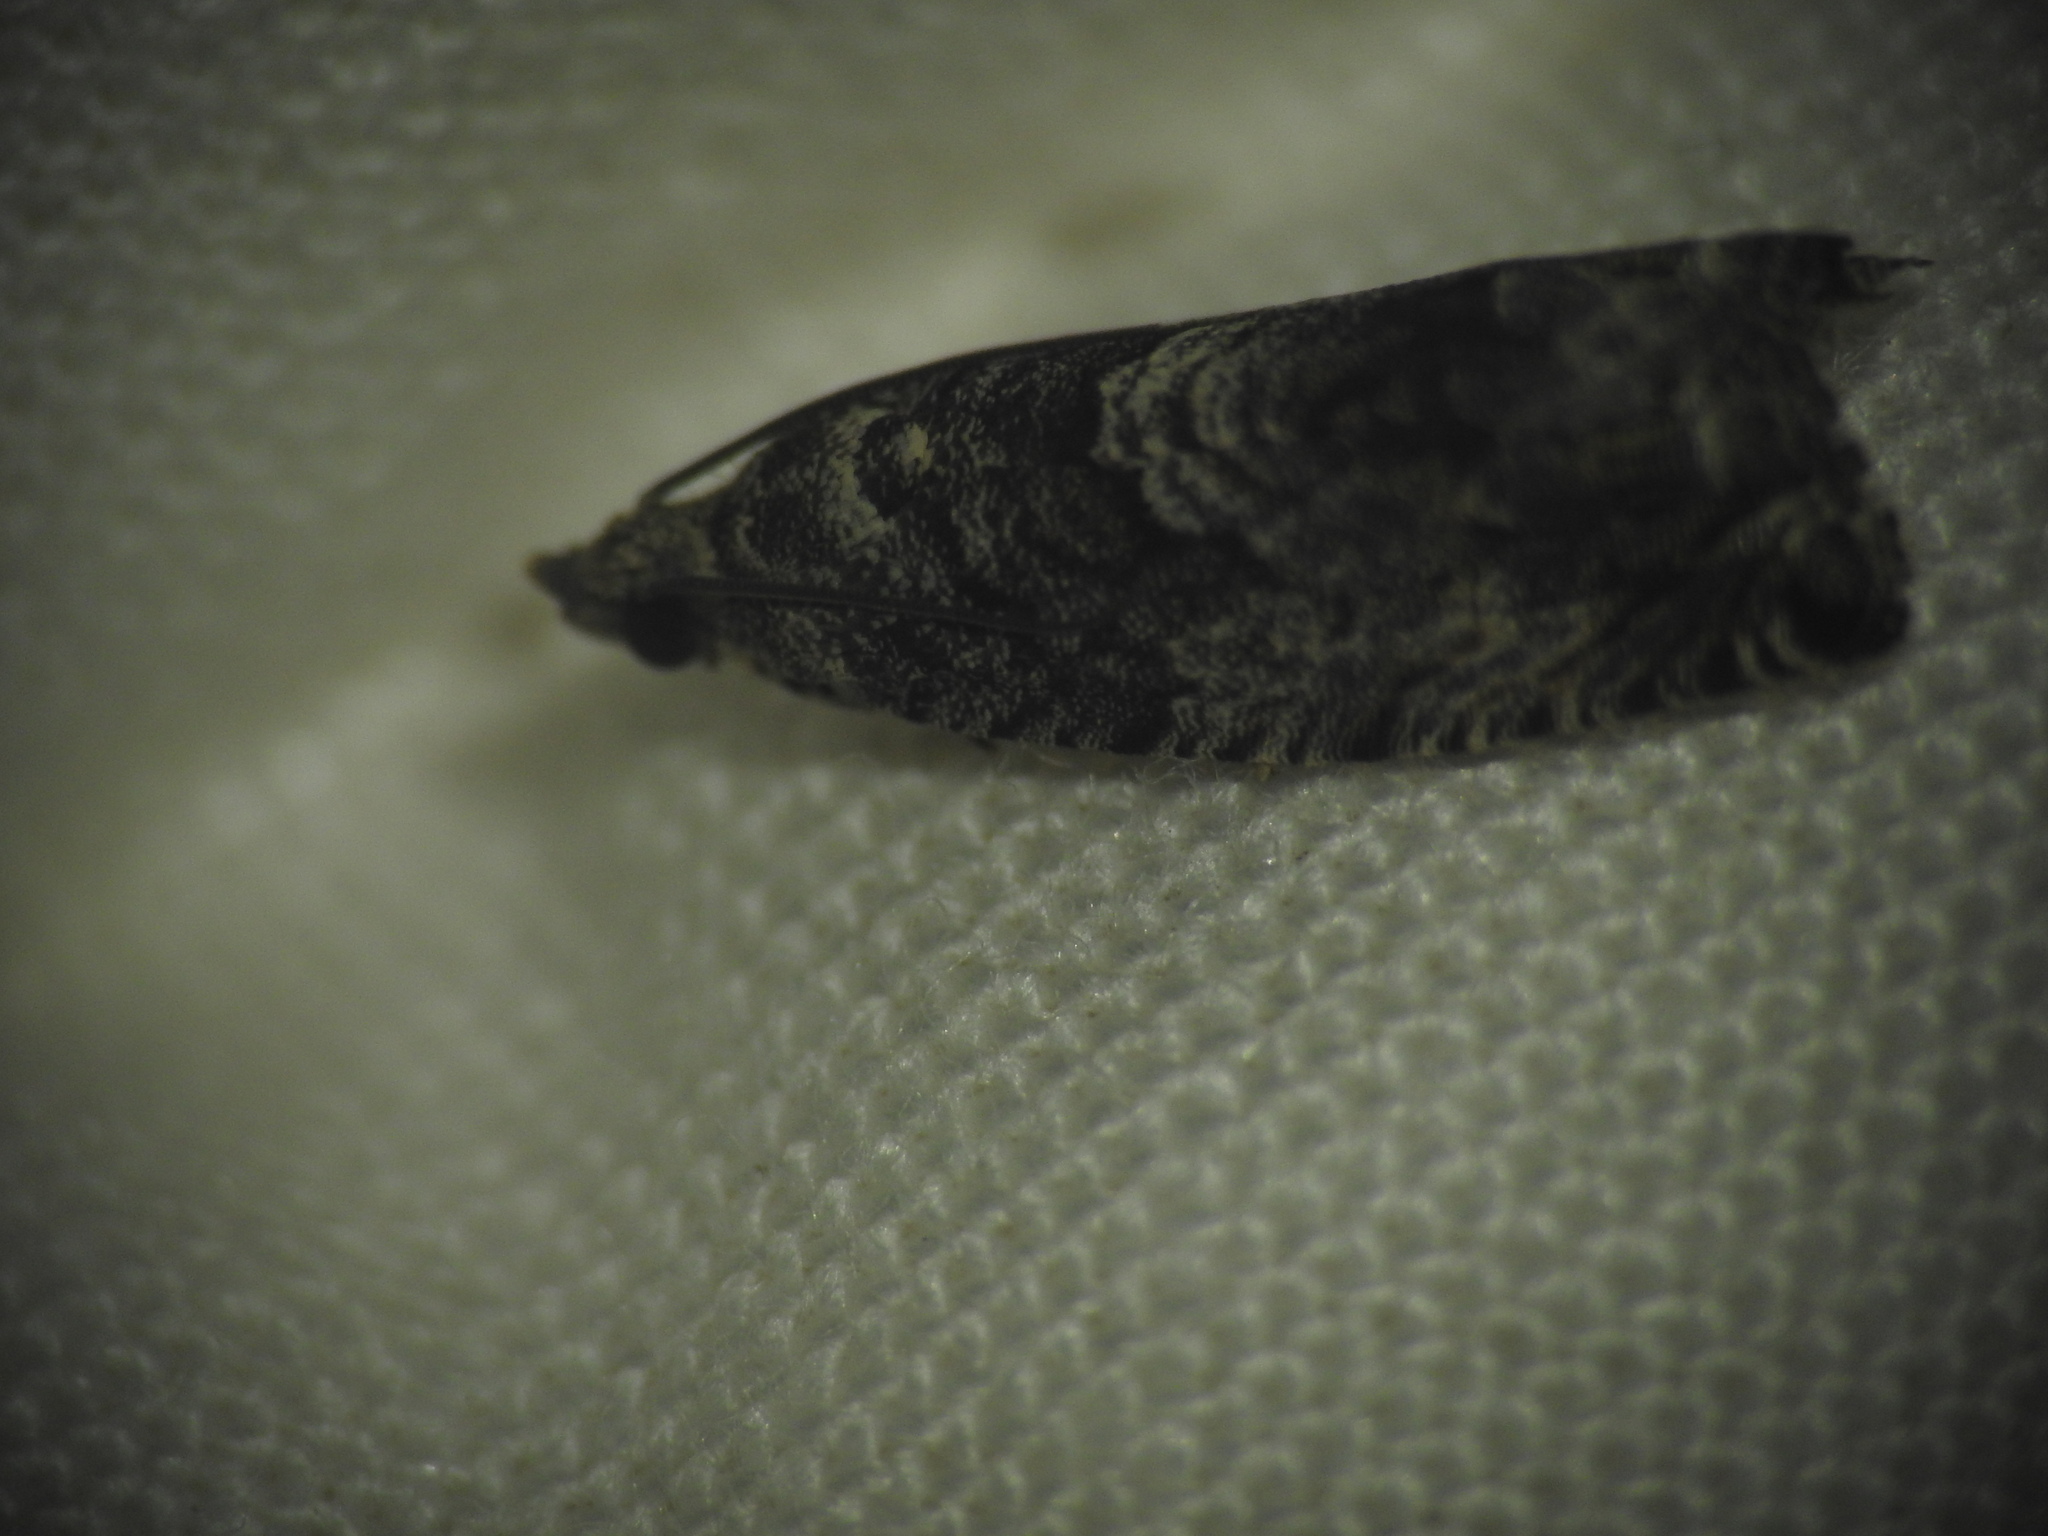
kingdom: Animalia
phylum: Arthropoda
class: Insecta
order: Lepidoptera
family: Tortricidae
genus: Cydia
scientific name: Cydia fagiglandana
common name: Large beech piercer
